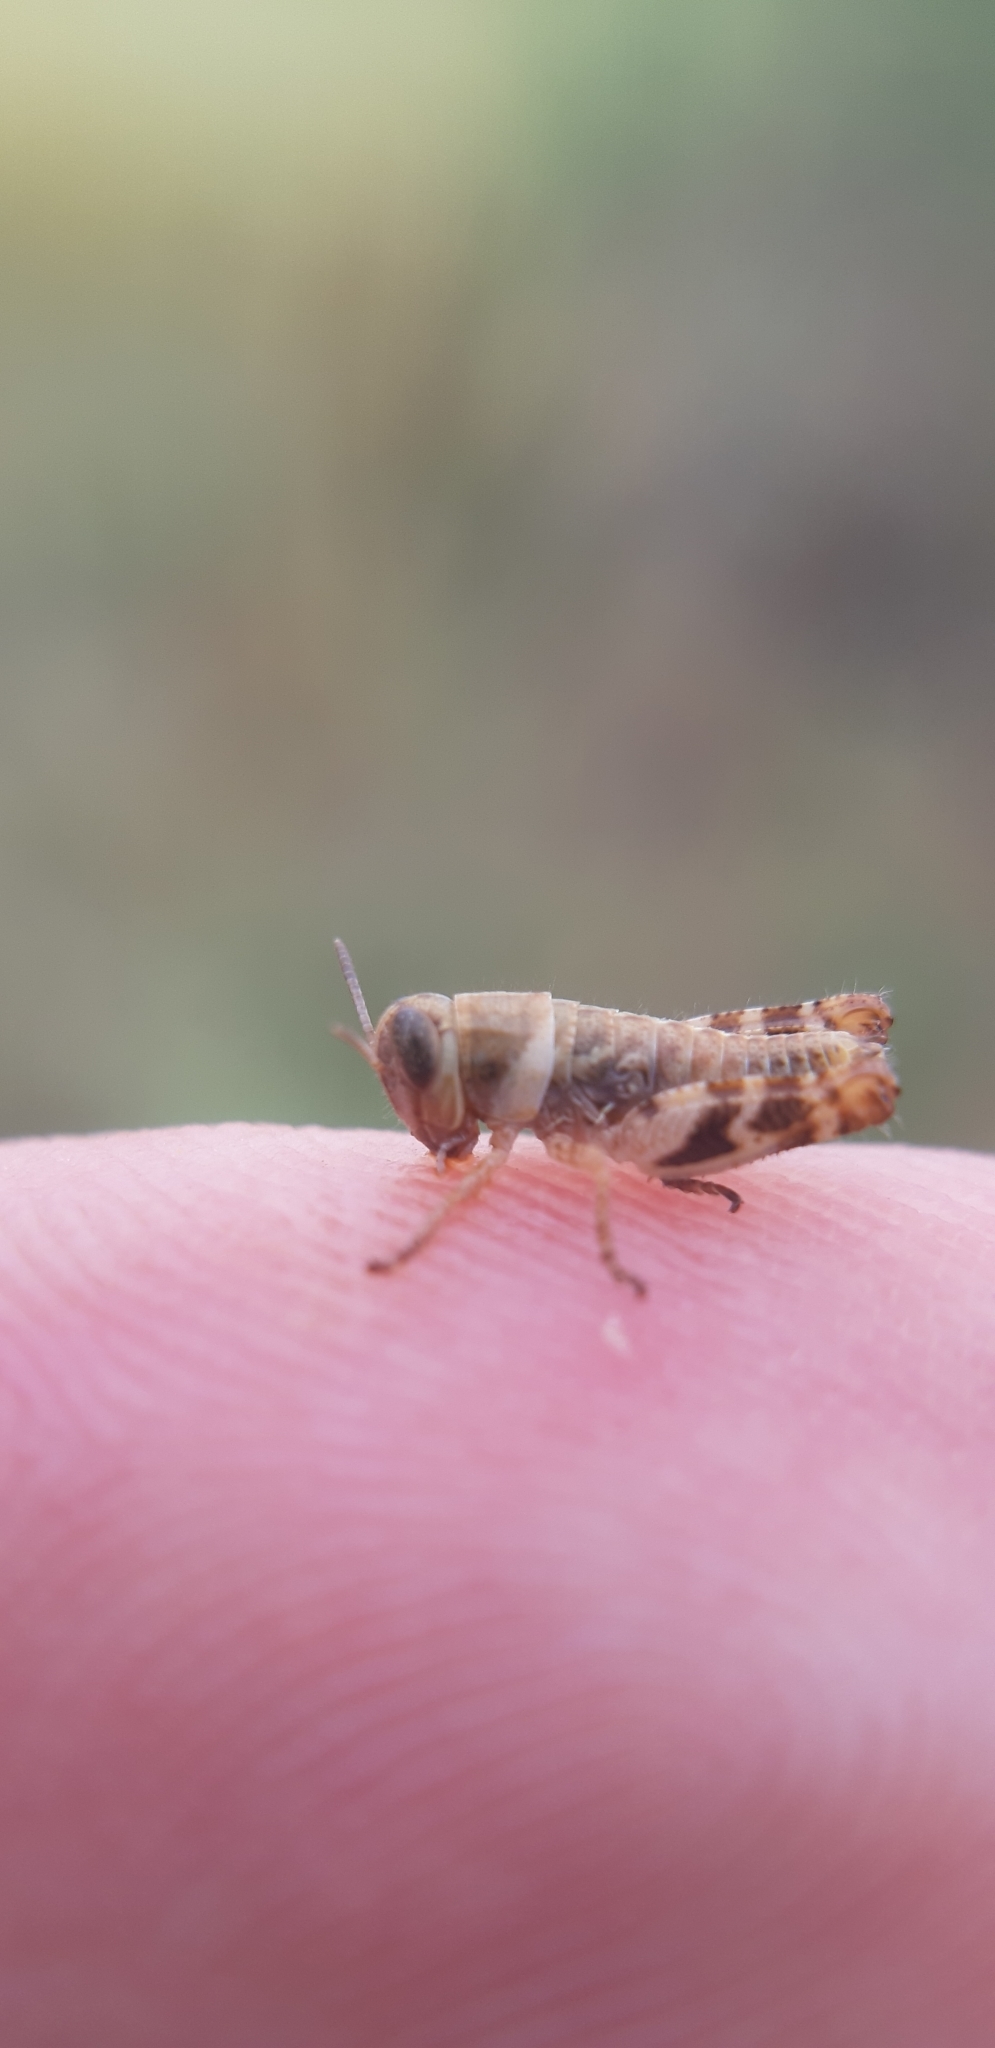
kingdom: Animalia
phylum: Arthropoda
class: Insecta
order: Orthoptera
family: Acrididae
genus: Calliptamus
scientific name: Calliptamus italicus
